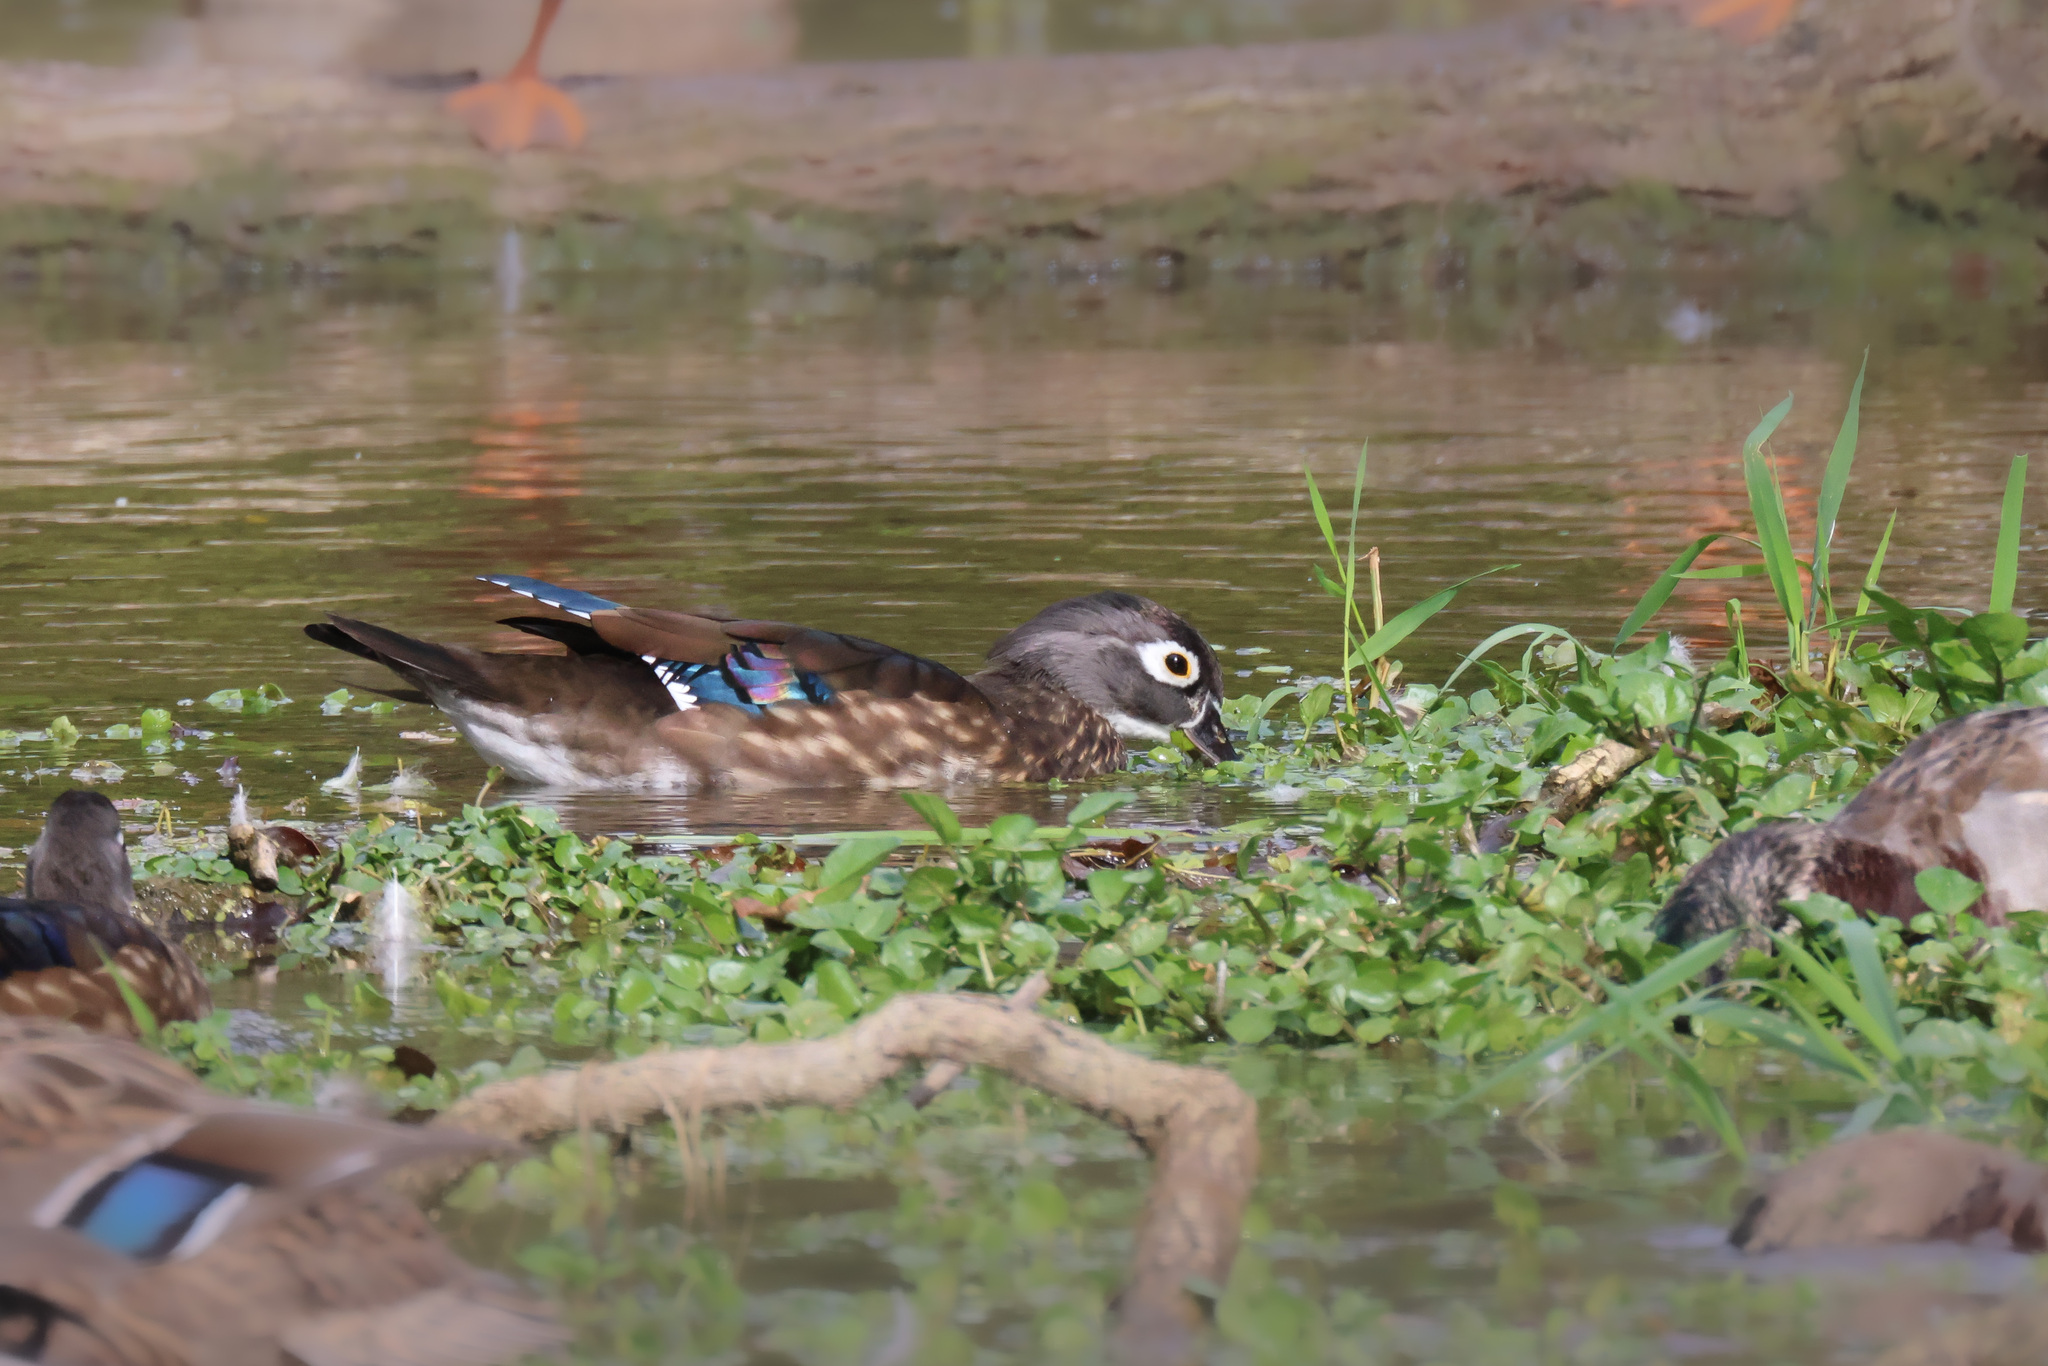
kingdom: Animalia
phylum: Chordata
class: Aves
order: Anseriformes
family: Anatidae
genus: Aix
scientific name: Aix sponsa
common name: Wood duck
